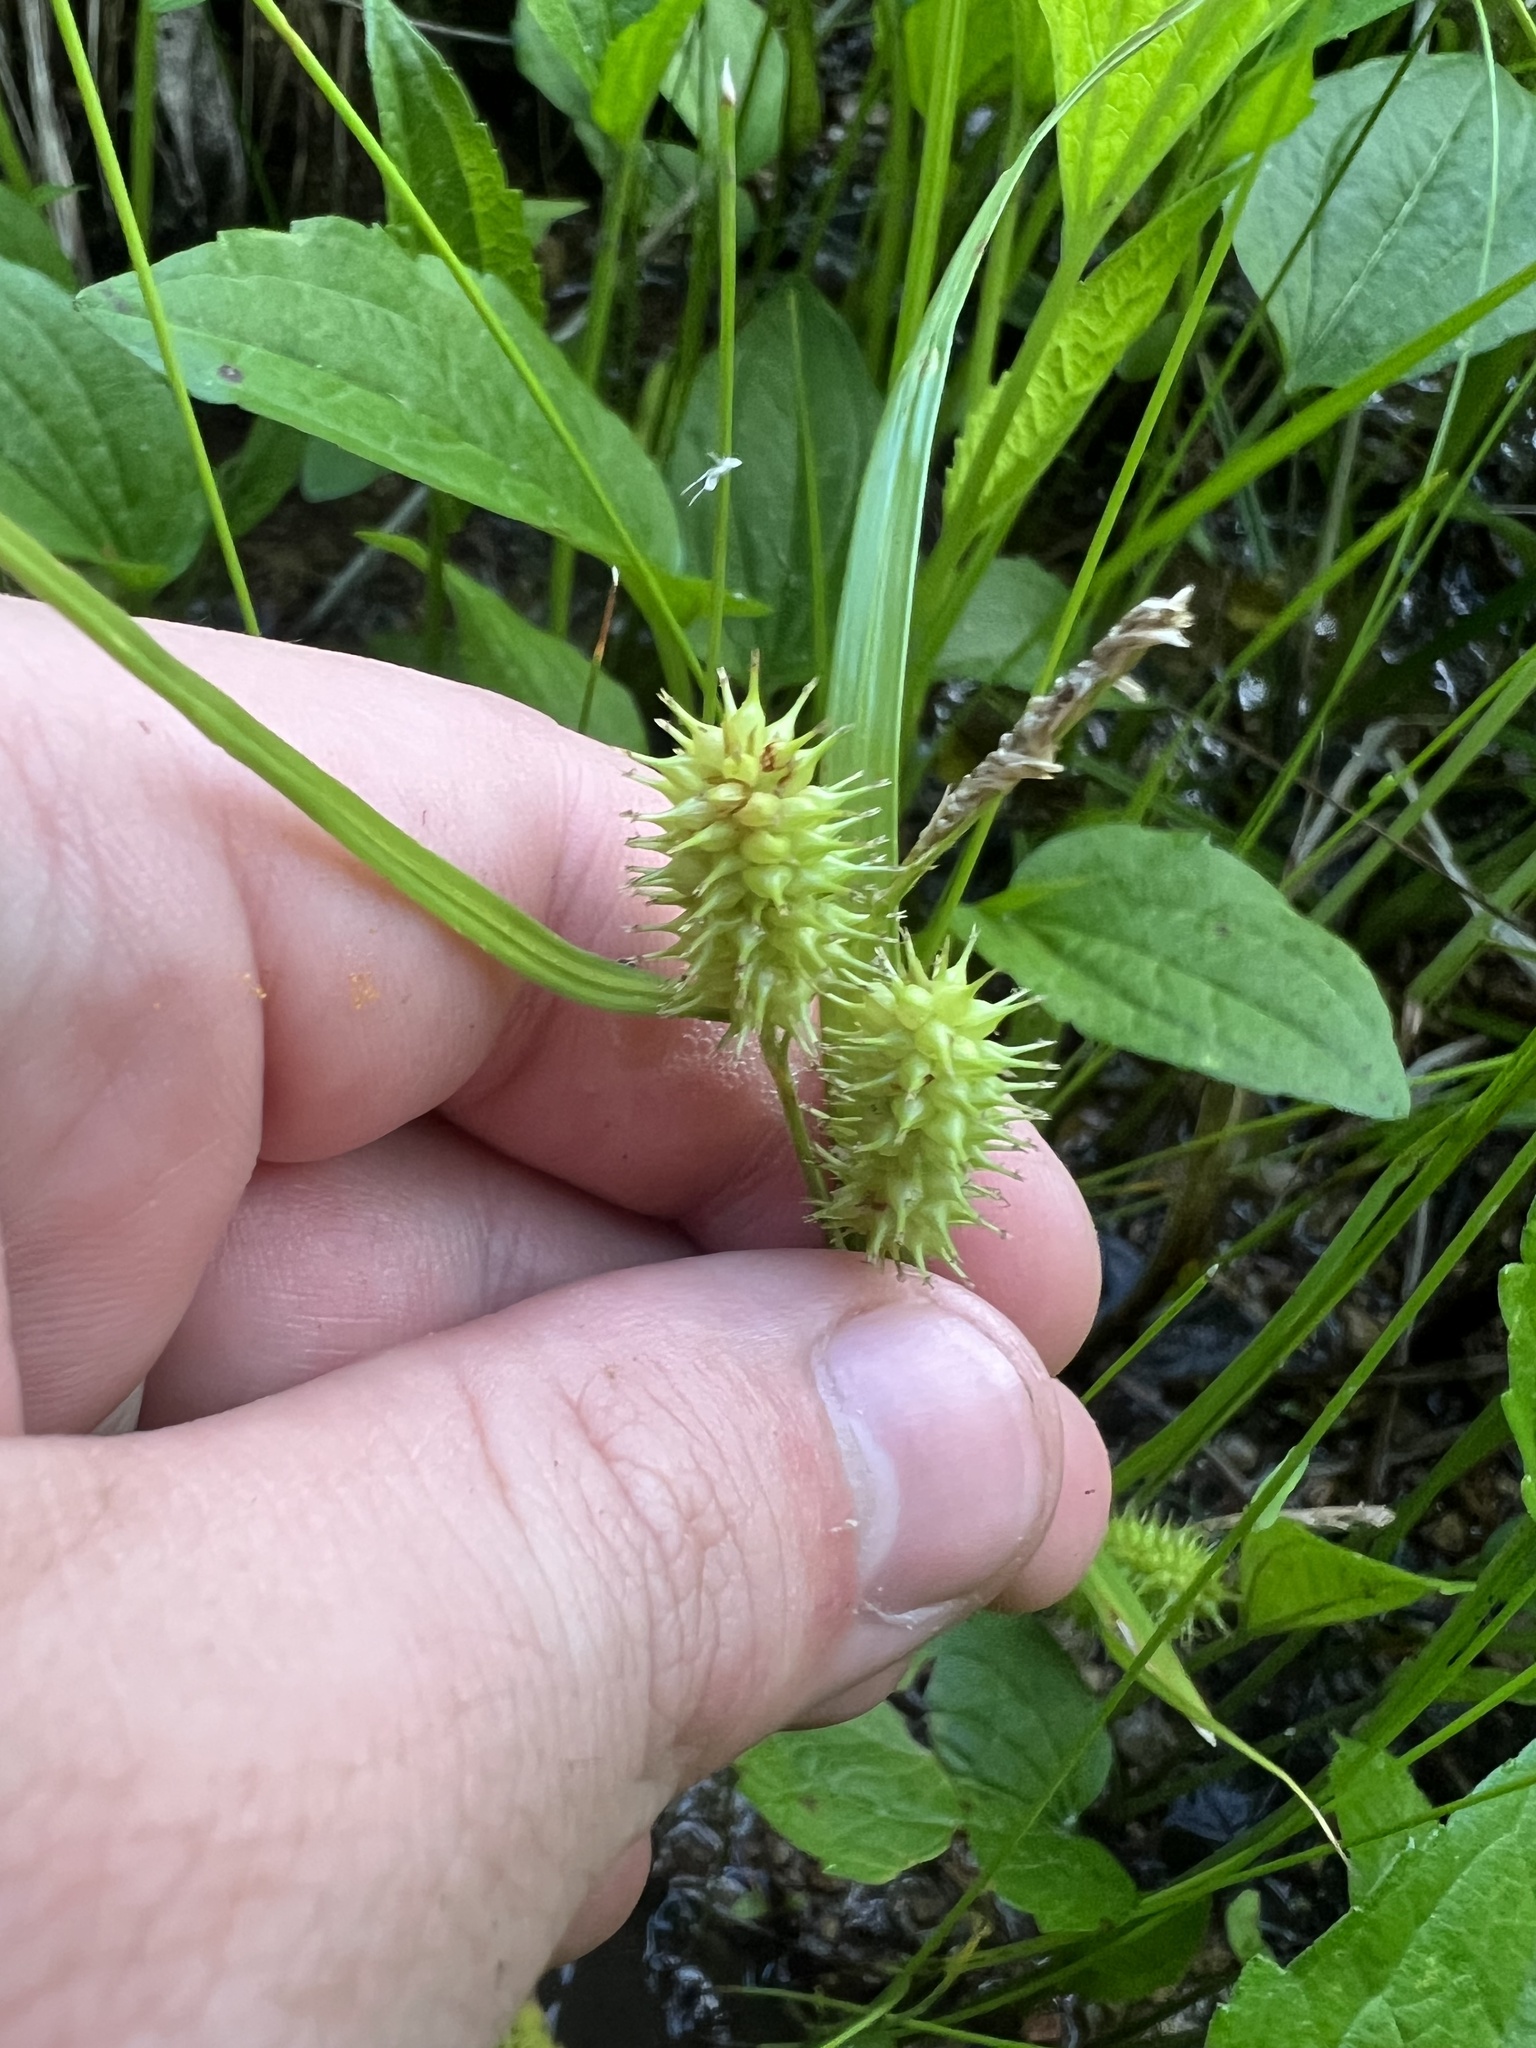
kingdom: Plantae
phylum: Tracheophyta
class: Liliopsida
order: Poales
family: Cyperaceae
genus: Carex
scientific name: Carex hystericina
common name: Bottlebrush sedge
